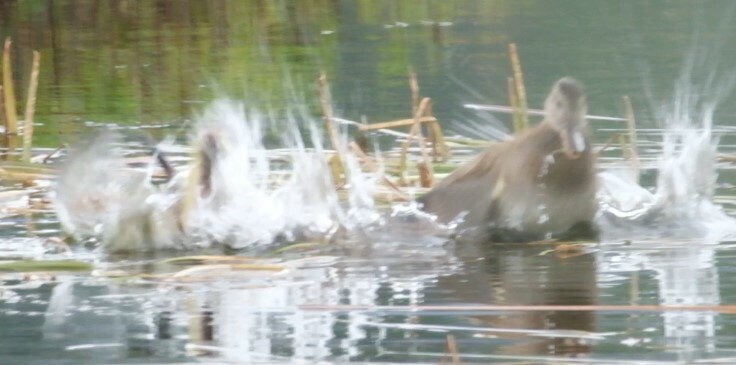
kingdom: Animalia
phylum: Chordata
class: Mammalia
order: Rodentia
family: Cricetidae
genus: Ondatra
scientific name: Ondatra zibethicus
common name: Muskrat
